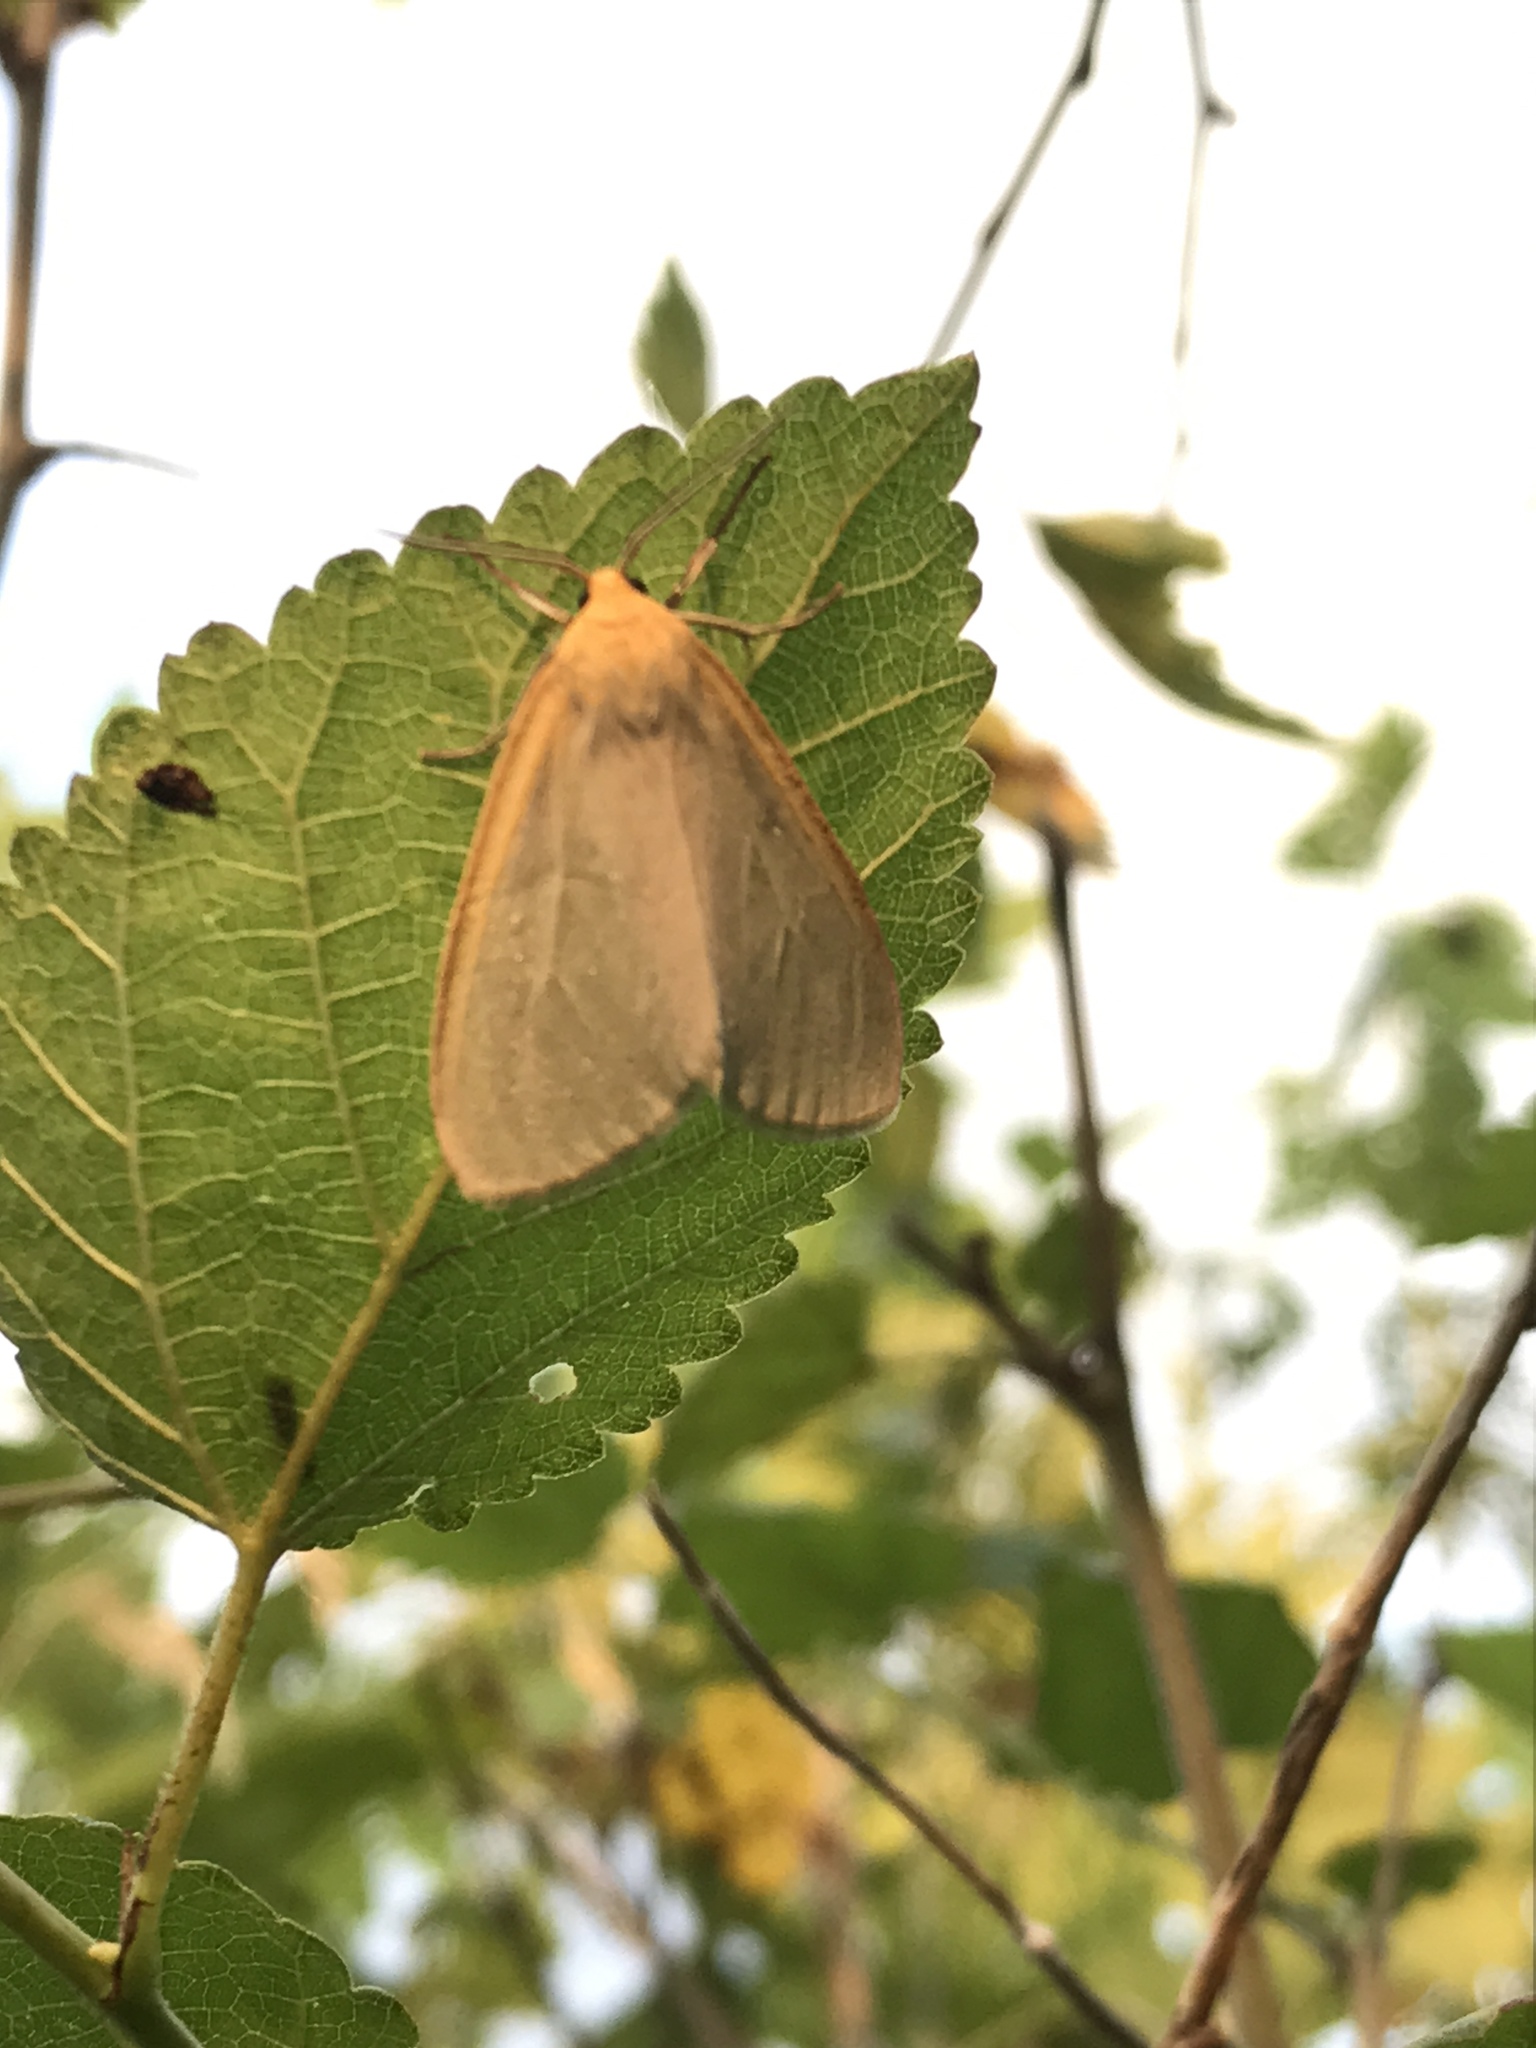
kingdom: Animalia
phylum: Arthropoda
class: Insecta
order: Lepidoptera
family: Erebidae
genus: Cycnia
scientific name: Cycnia tenera
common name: Delicate cycnia moth
